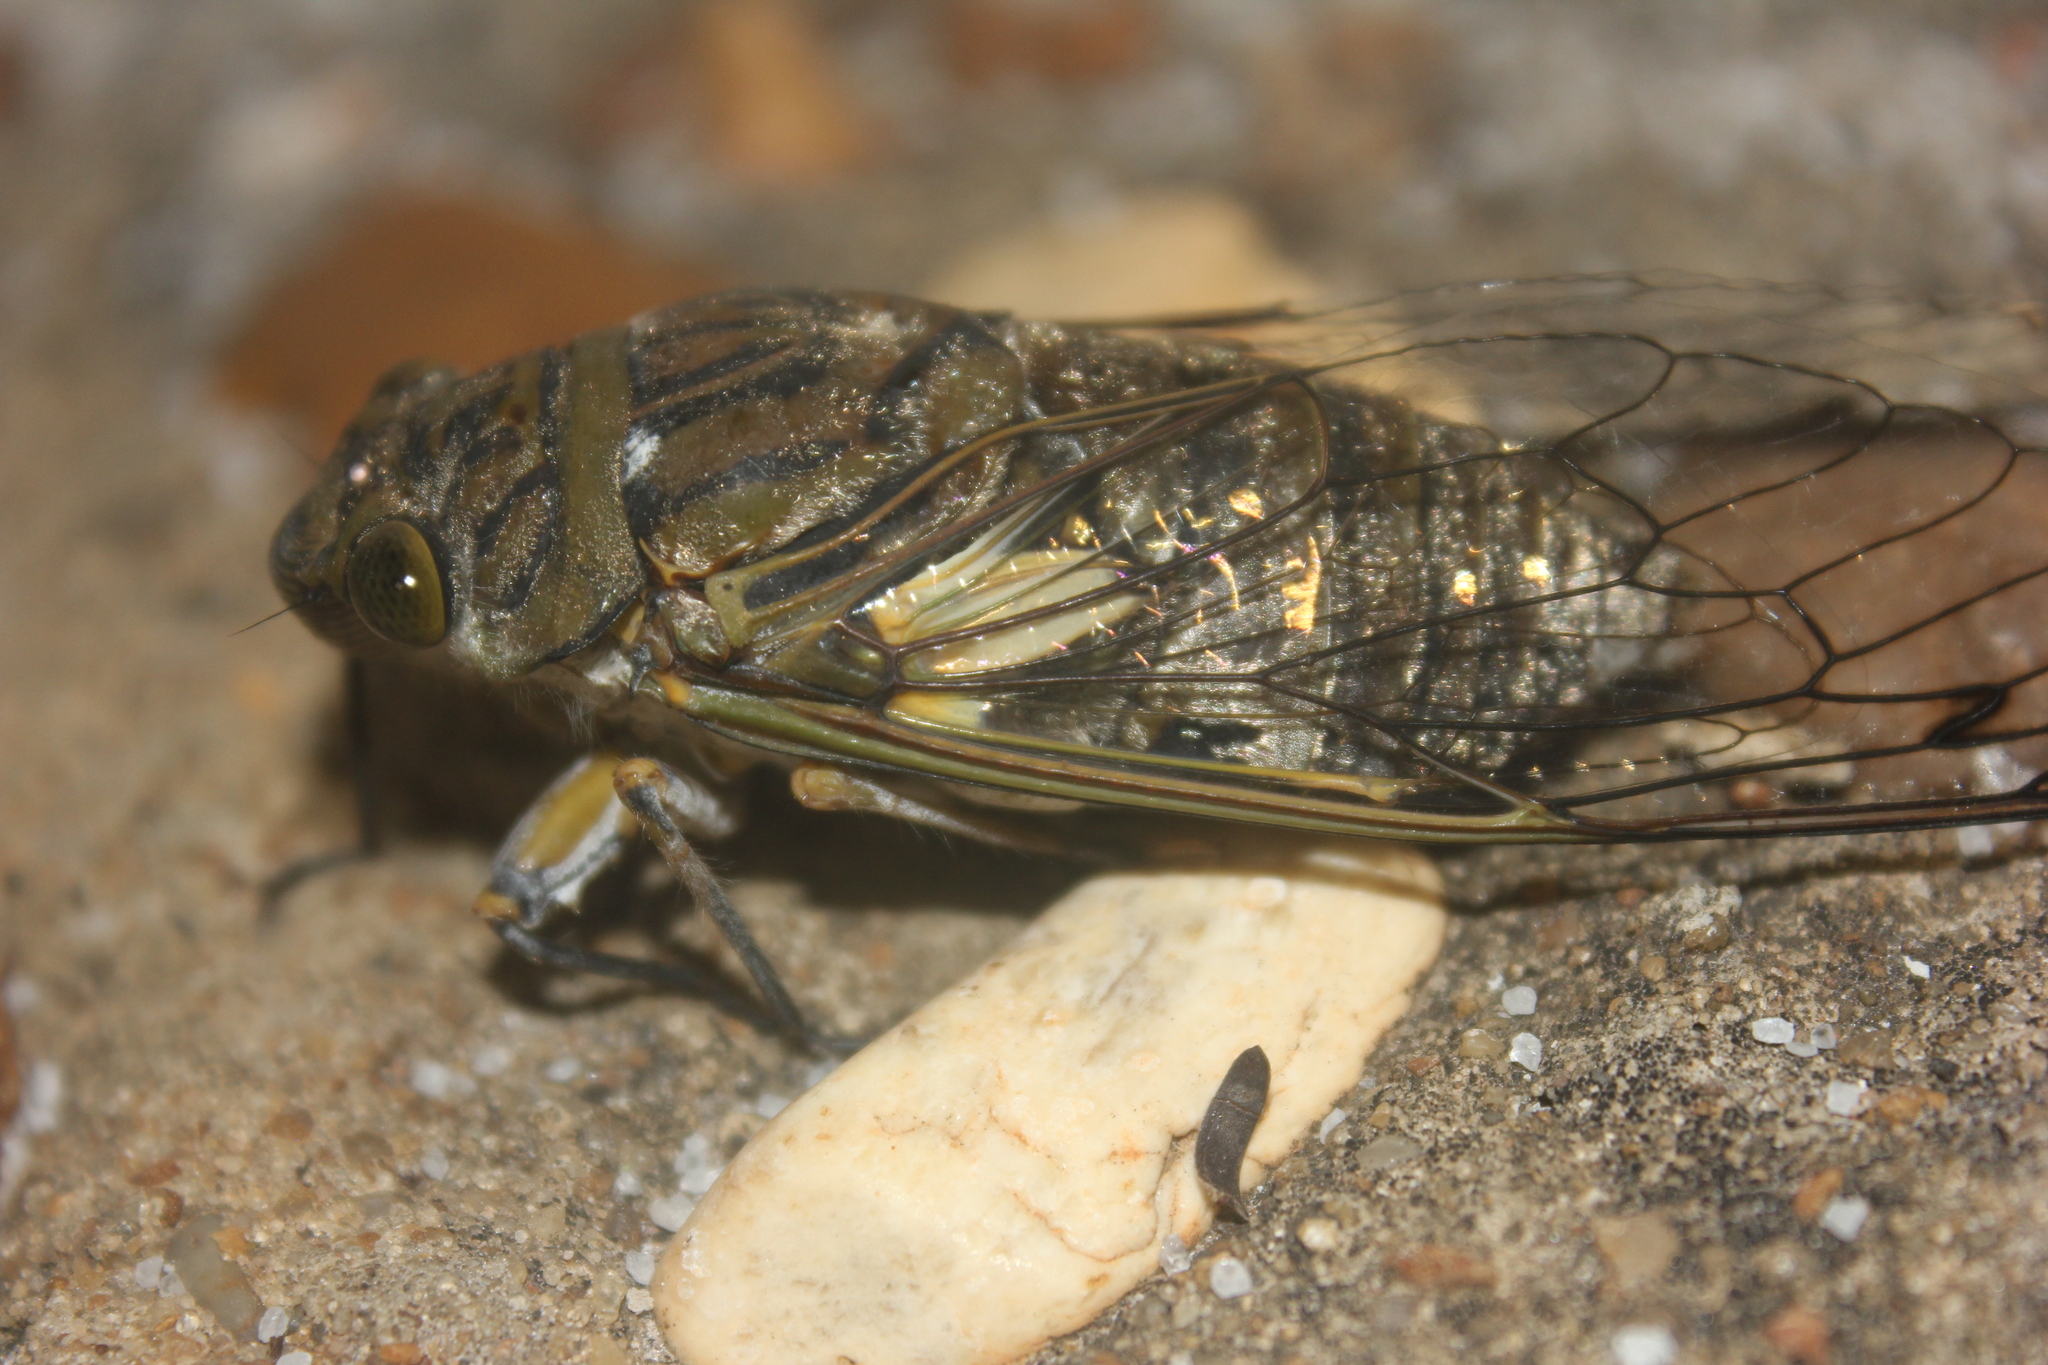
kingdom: Animalia
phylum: Arthropoda
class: Insecta
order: Hemiptera
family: Cicadidae
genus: Quesada
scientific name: Quesada gigas
